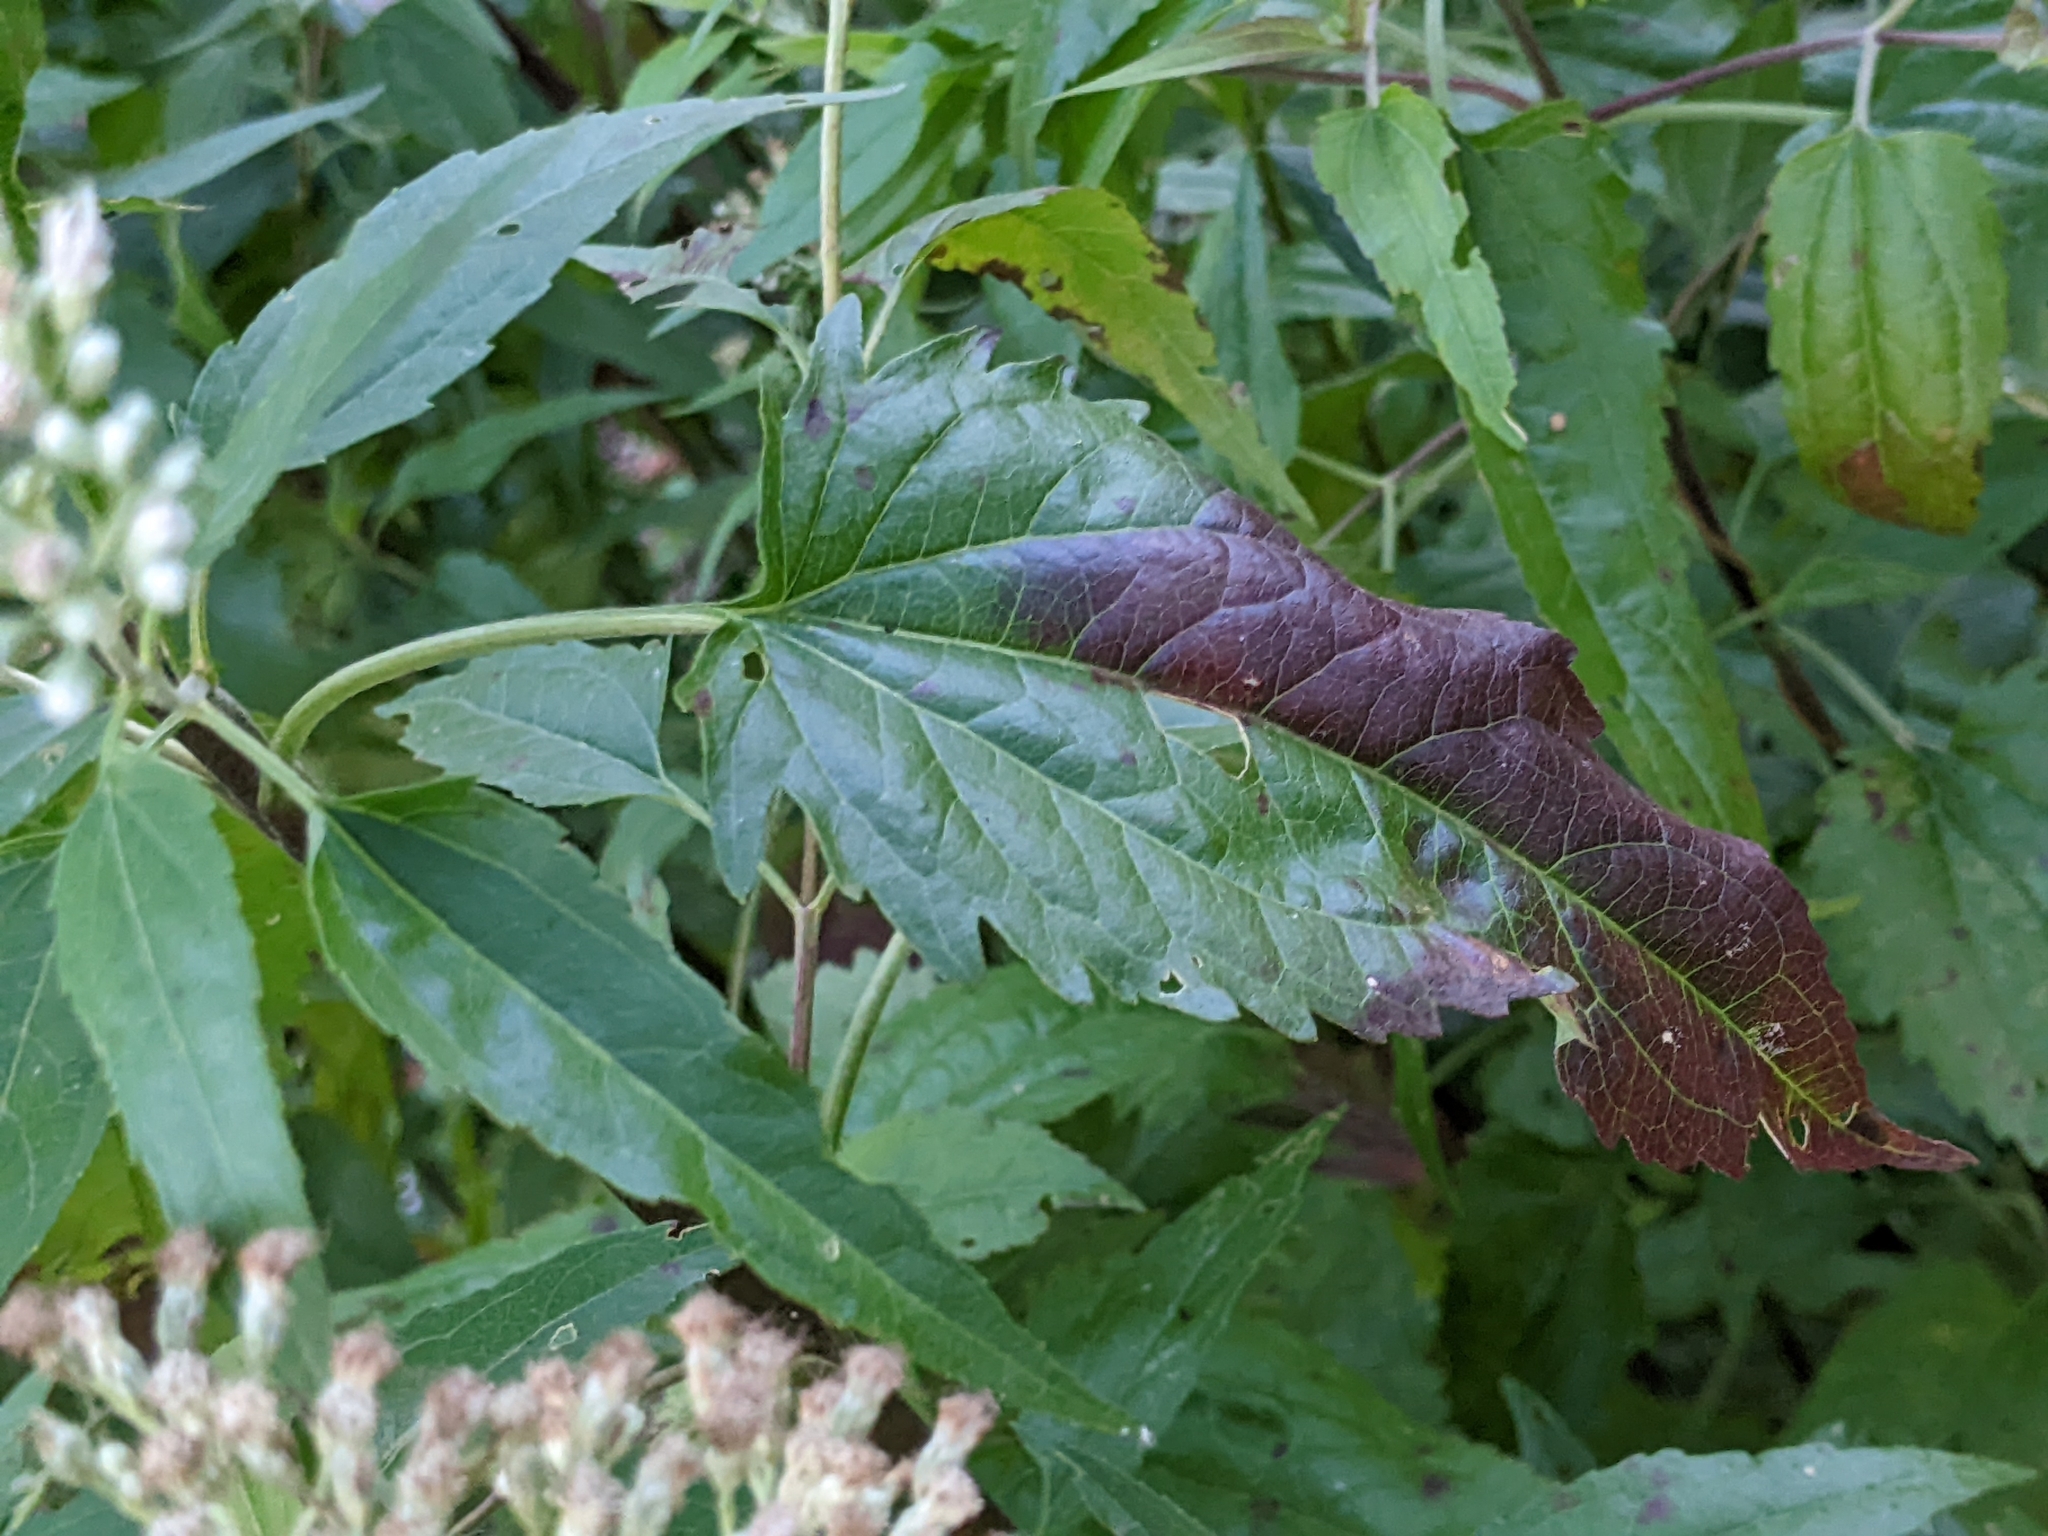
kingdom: Plantae
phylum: Tracheophyta
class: Magnoliopsida
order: Asterales
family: Asteraceae
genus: Eupatorium
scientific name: Eupatorium serotinum
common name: Late boneset
